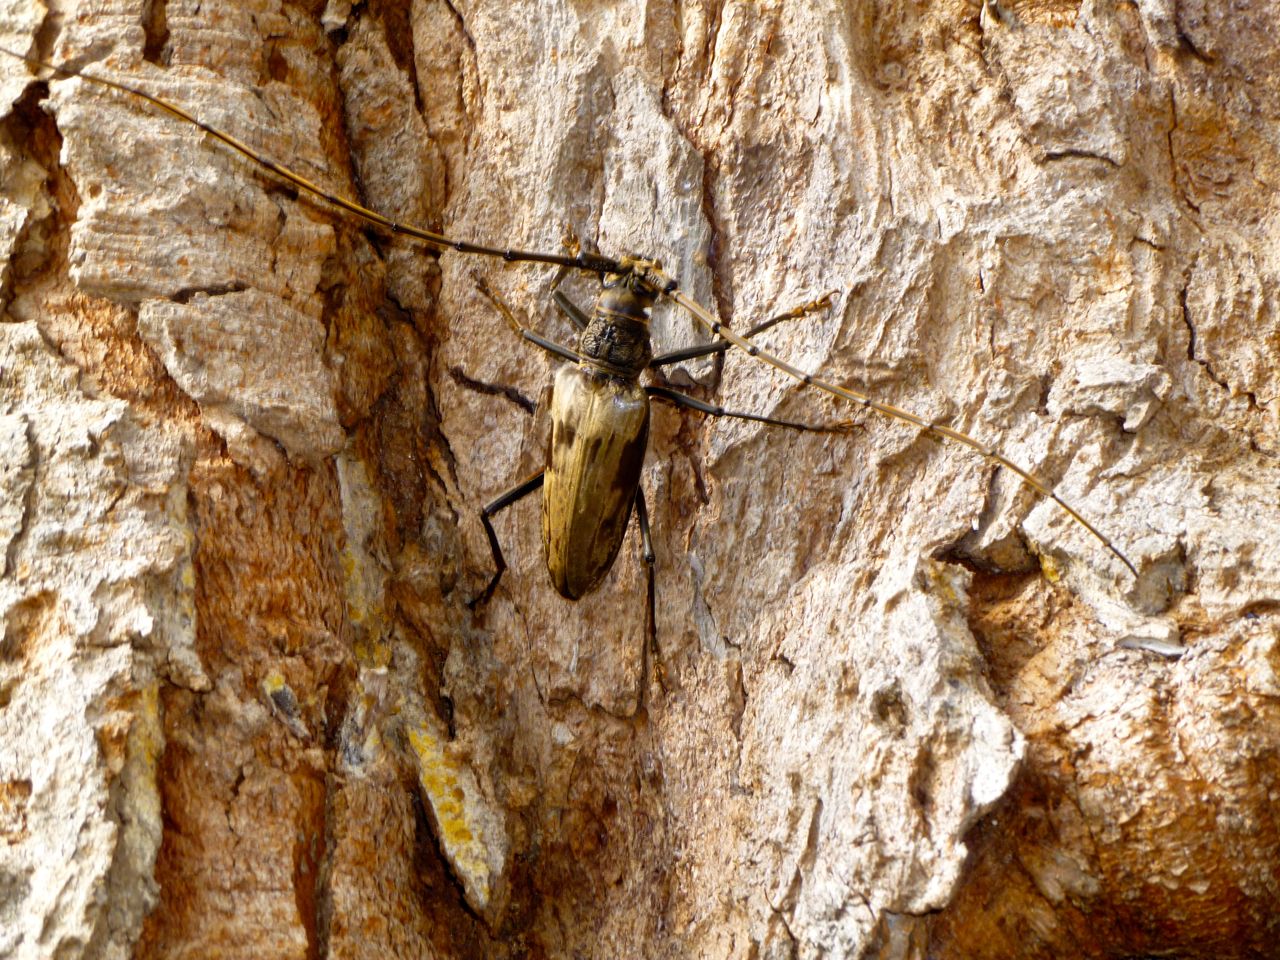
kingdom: Animalia
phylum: Arthropoda
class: Insecta
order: Coleoptera
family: Cerambycidae
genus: Neocerambyx
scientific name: Neocerambyx paris
